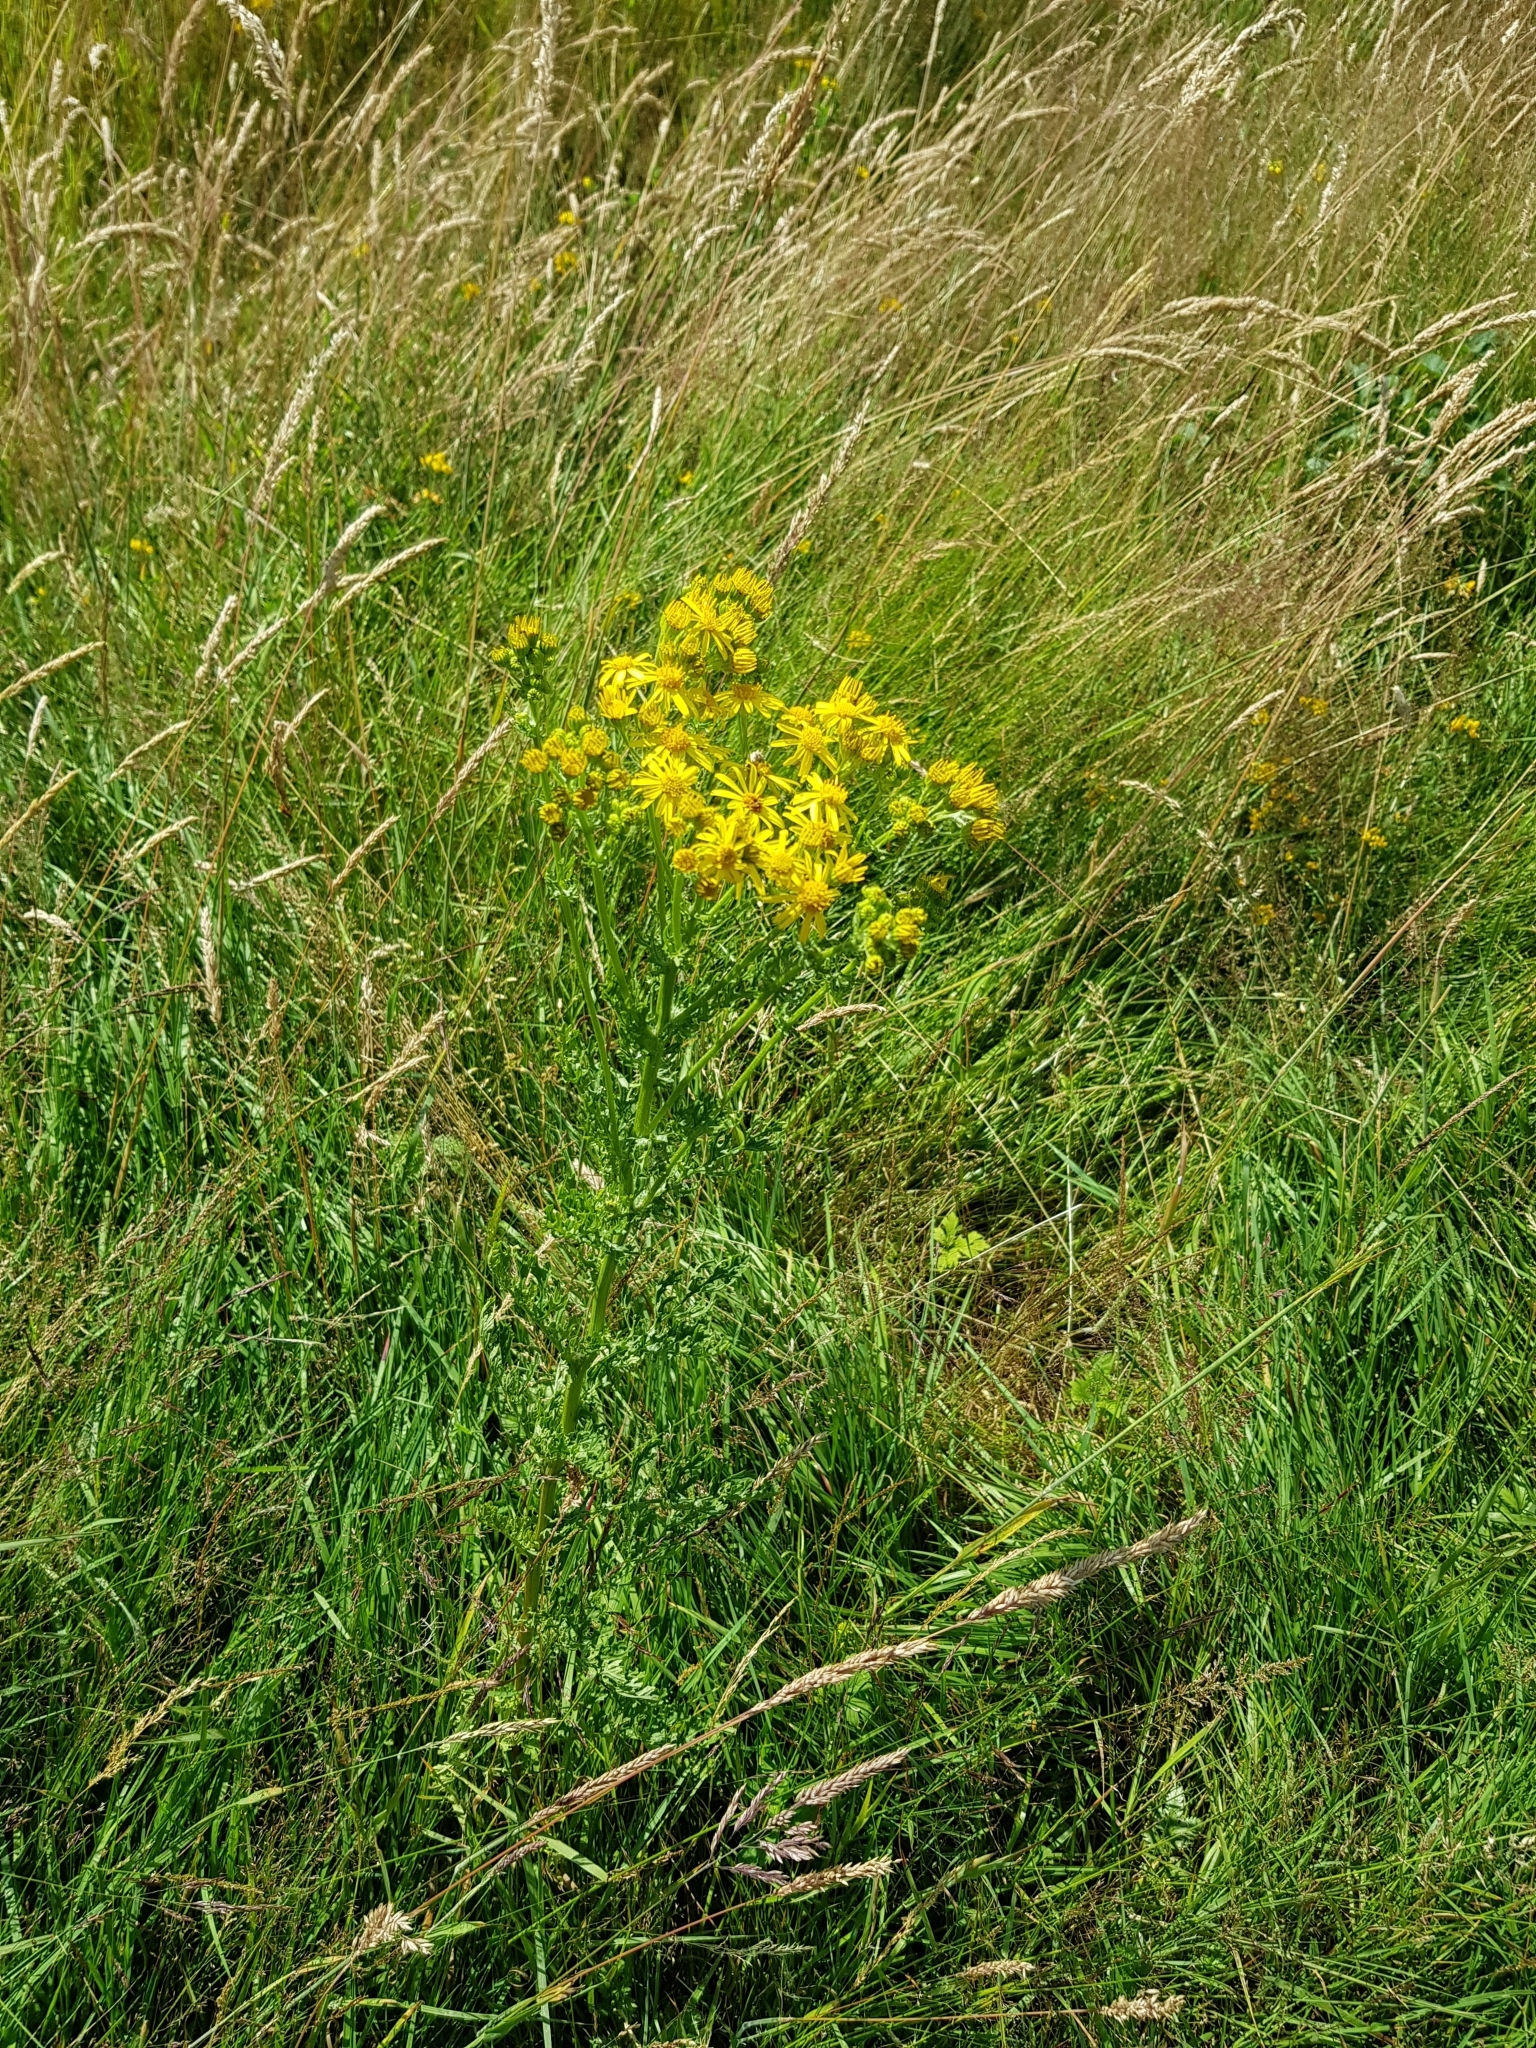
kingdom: Plantae
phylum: Tracheophyta
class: Magnoliopsida
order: Asterales
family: Asteraceae
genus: Jacobaea
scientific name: Jacobaea vulgaris
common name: Stinking willie
